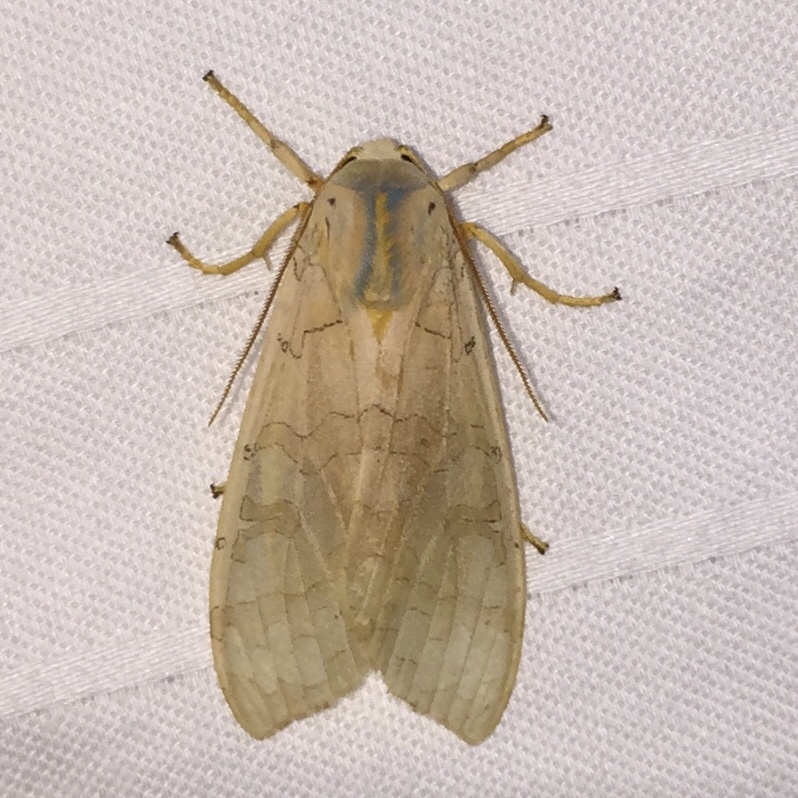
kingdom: Animalia
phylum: Arthropoda
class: Insecta
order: Lepidoptera
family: Erebidae
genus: Halysidota
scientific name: Halysidota
